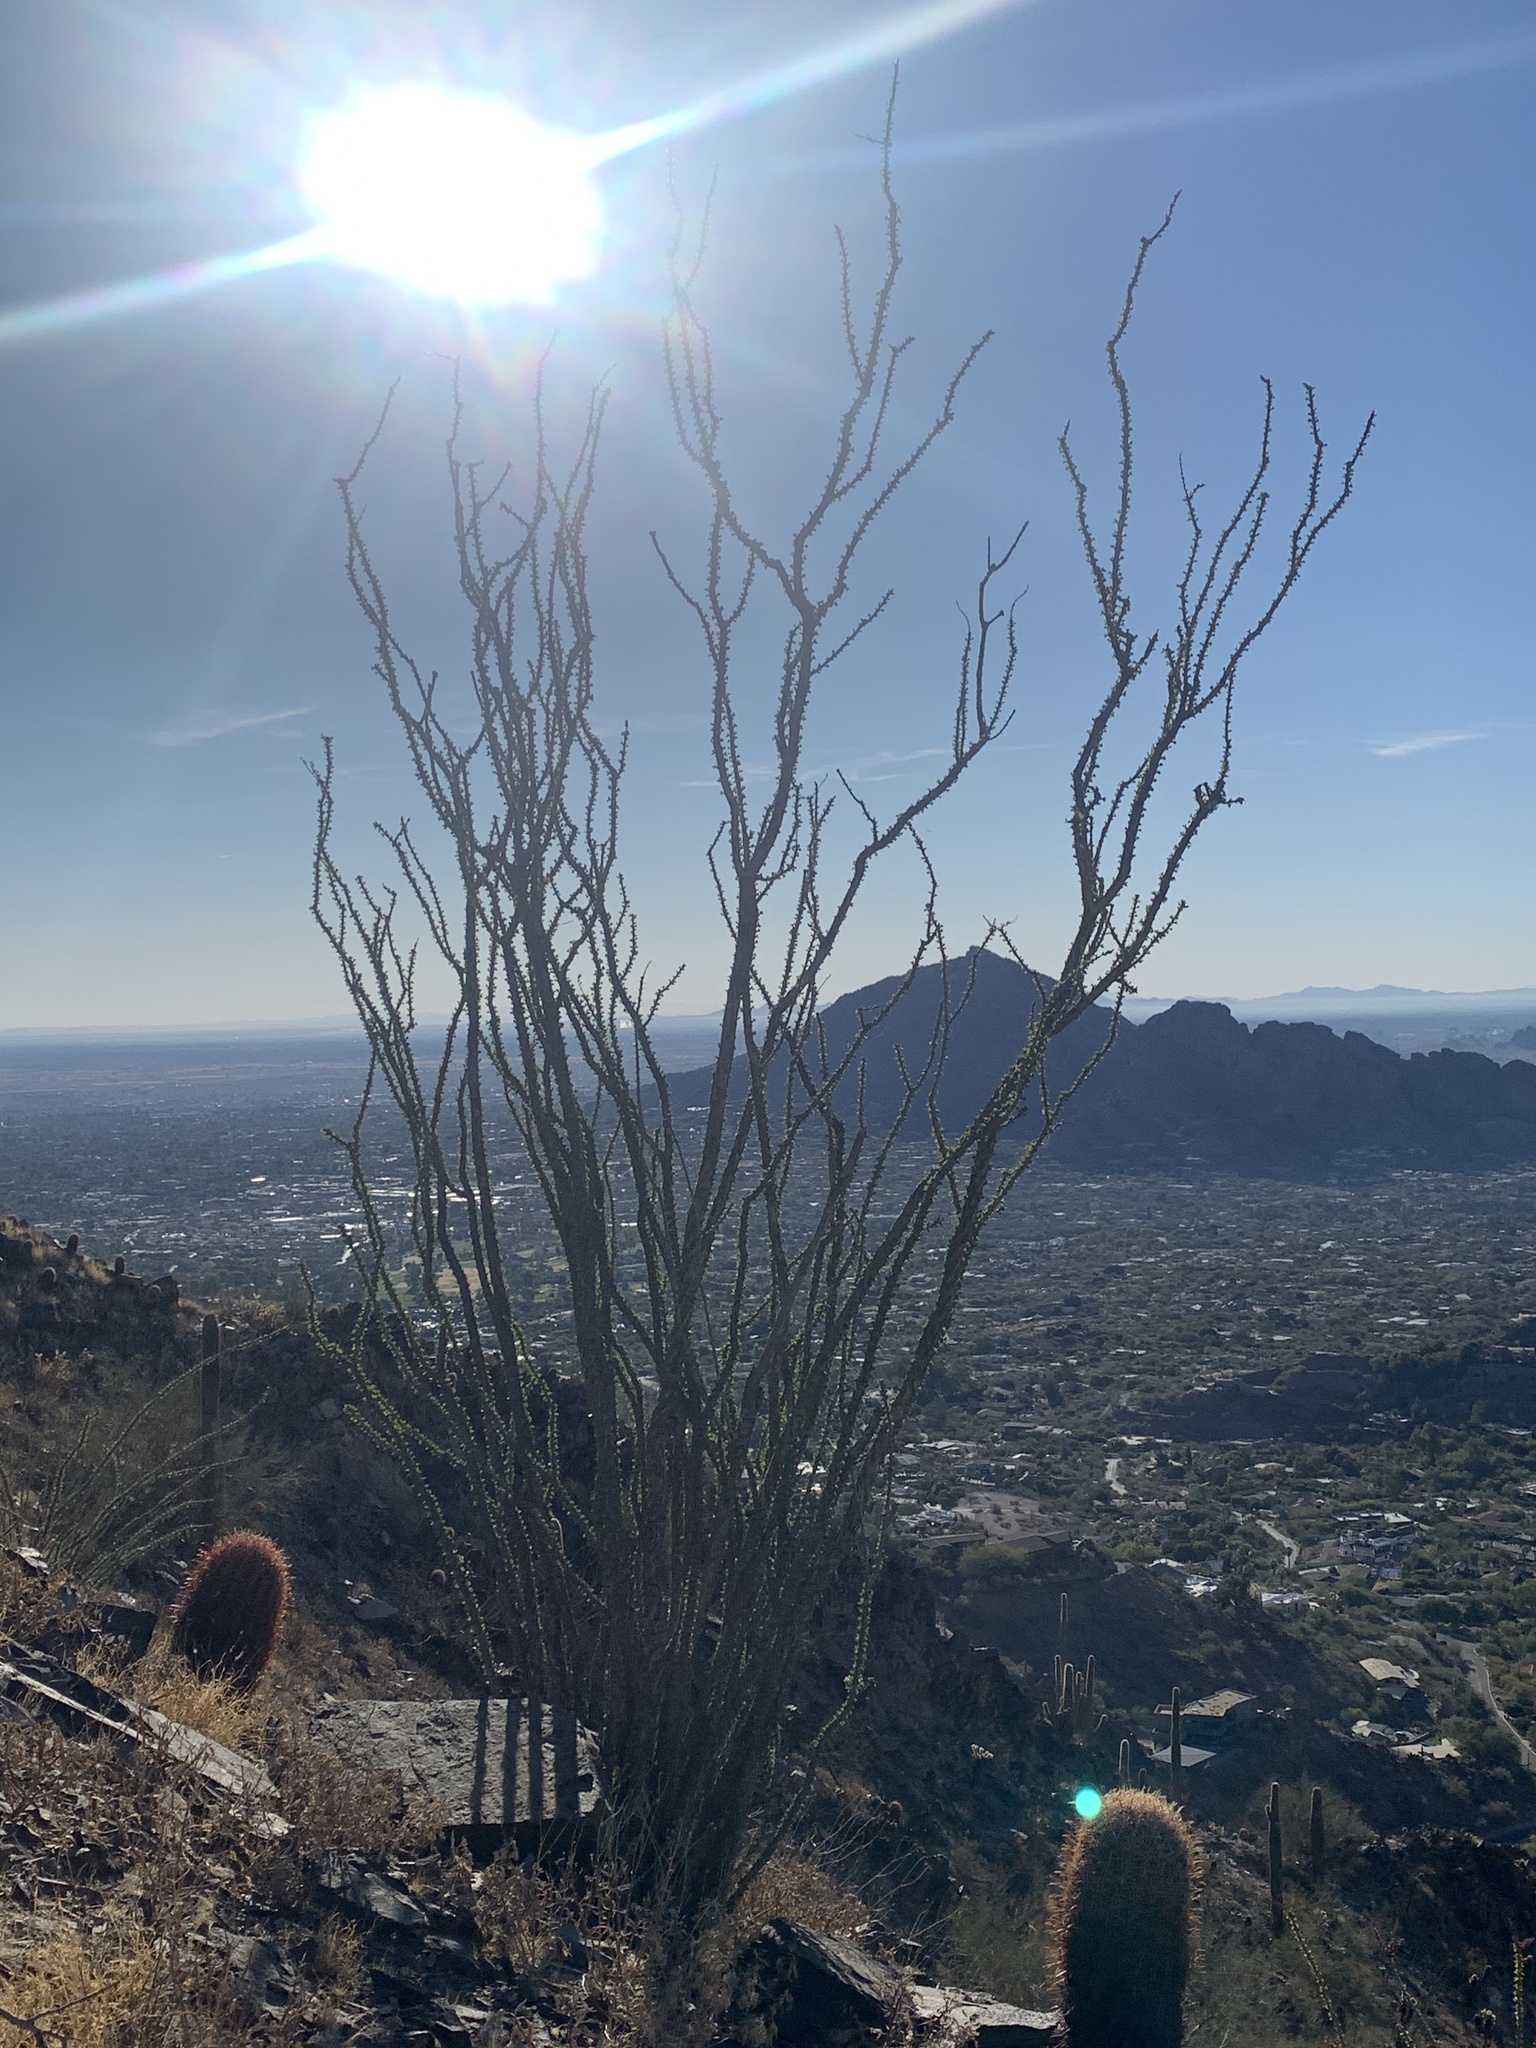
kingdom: Plantae
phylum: Tracheophyta
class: Magnoliopsida
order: Ericales
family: Fouquieriaceae
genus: Fouquieria
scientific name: Fouquieria splendens
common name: Vine-cactus
